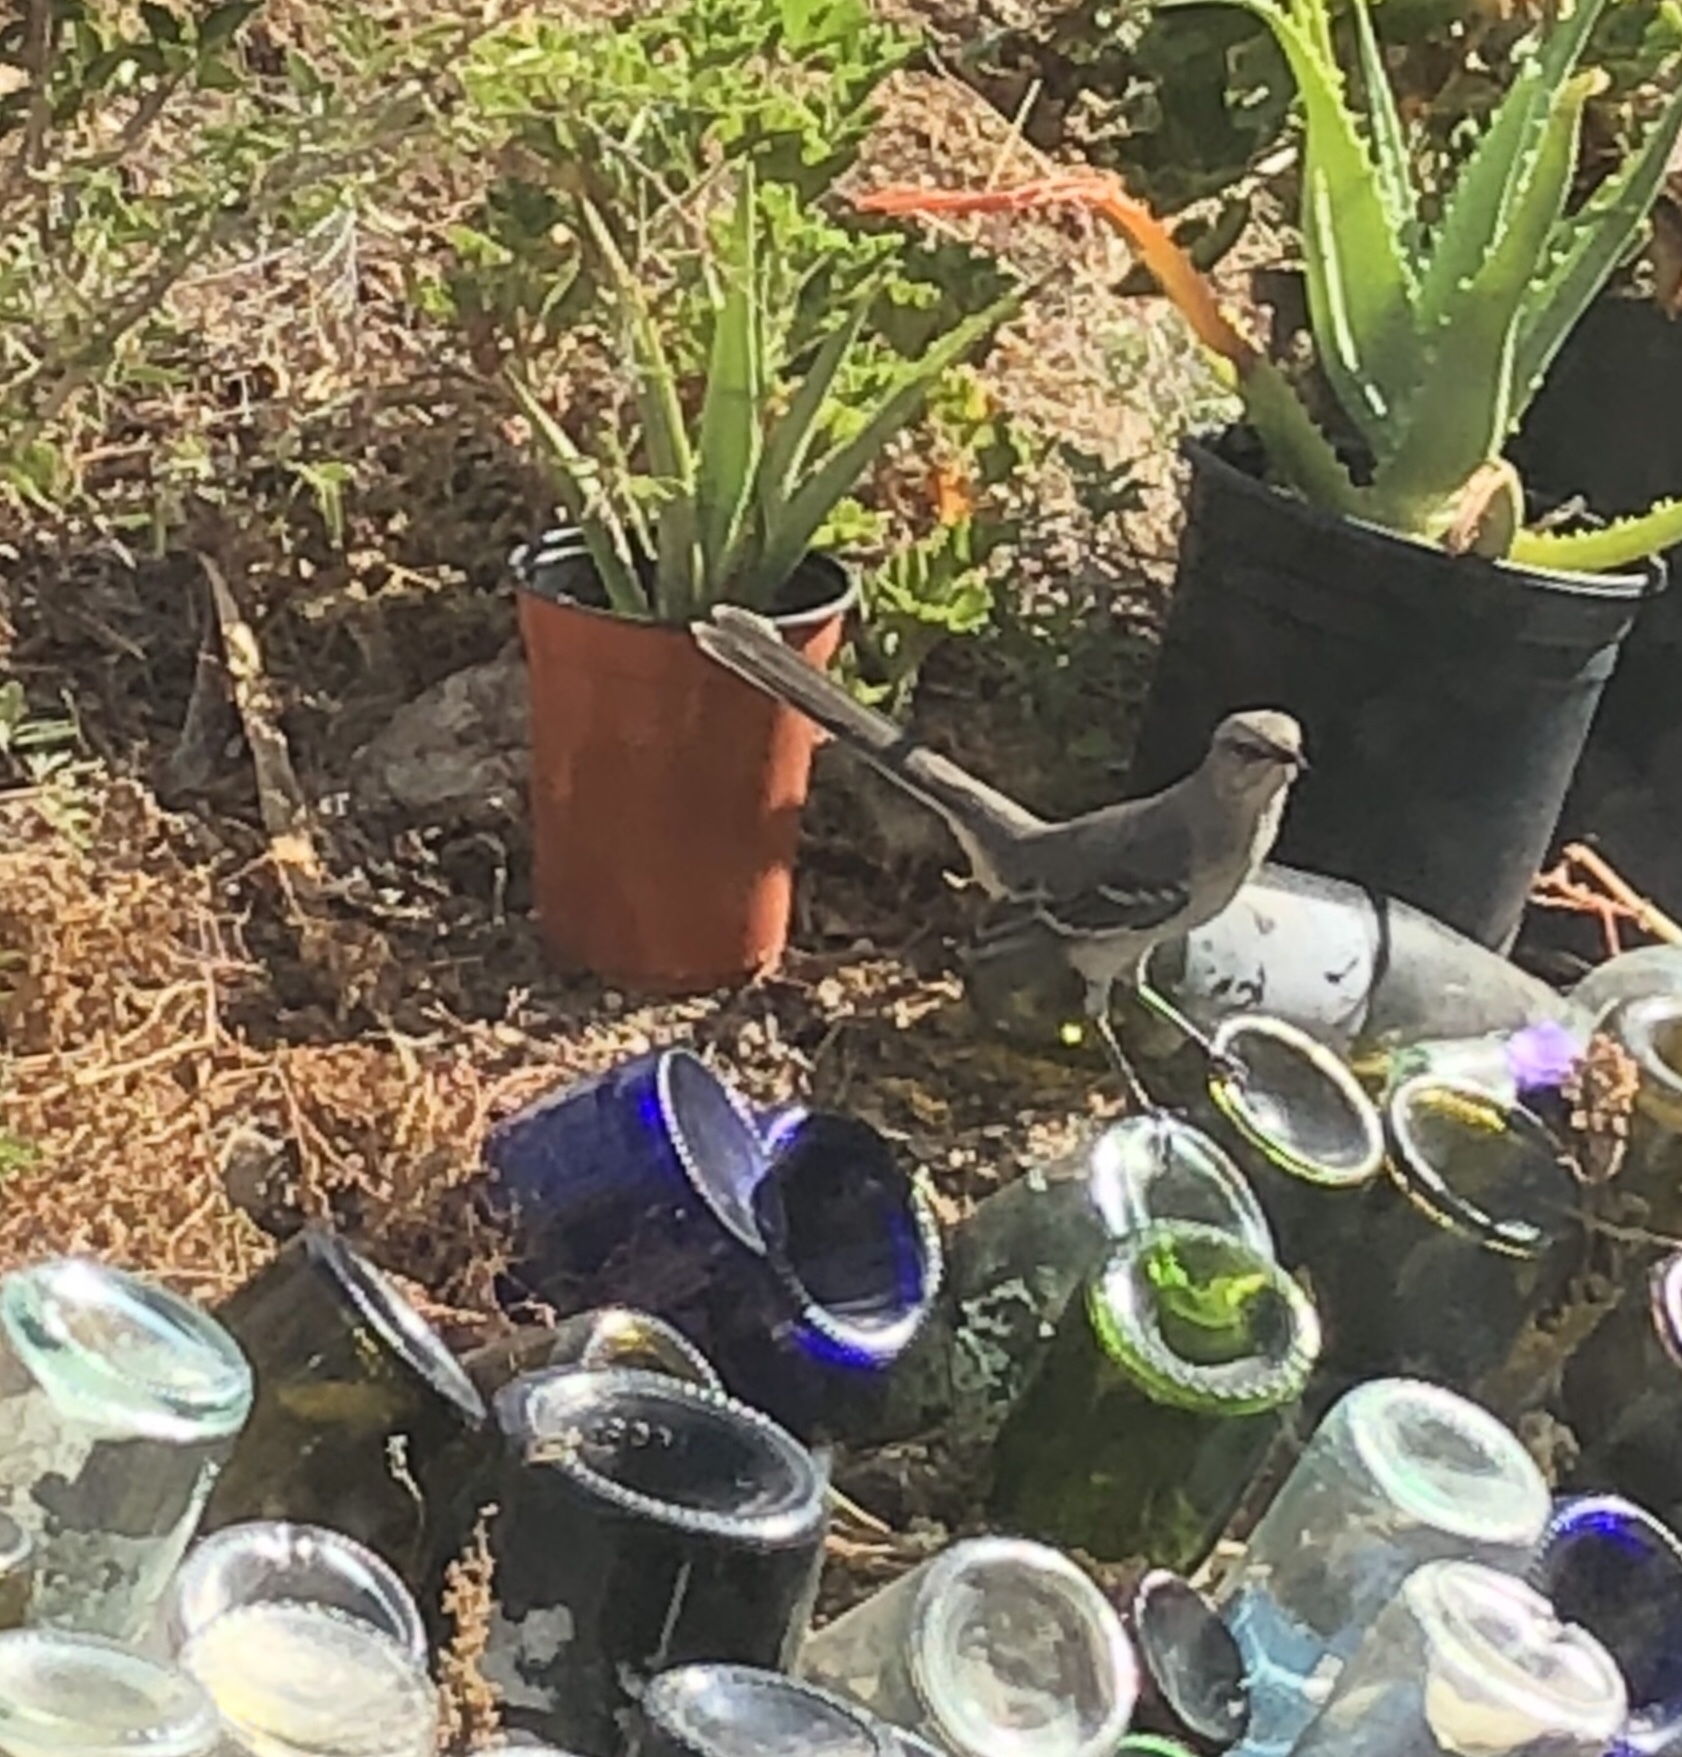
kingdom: Animalia
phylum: Chordata
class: Aves
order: Passeriformes
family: Mimidae
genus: Mimus
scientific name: Mimus polyglottos
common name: Northern mockingbird
